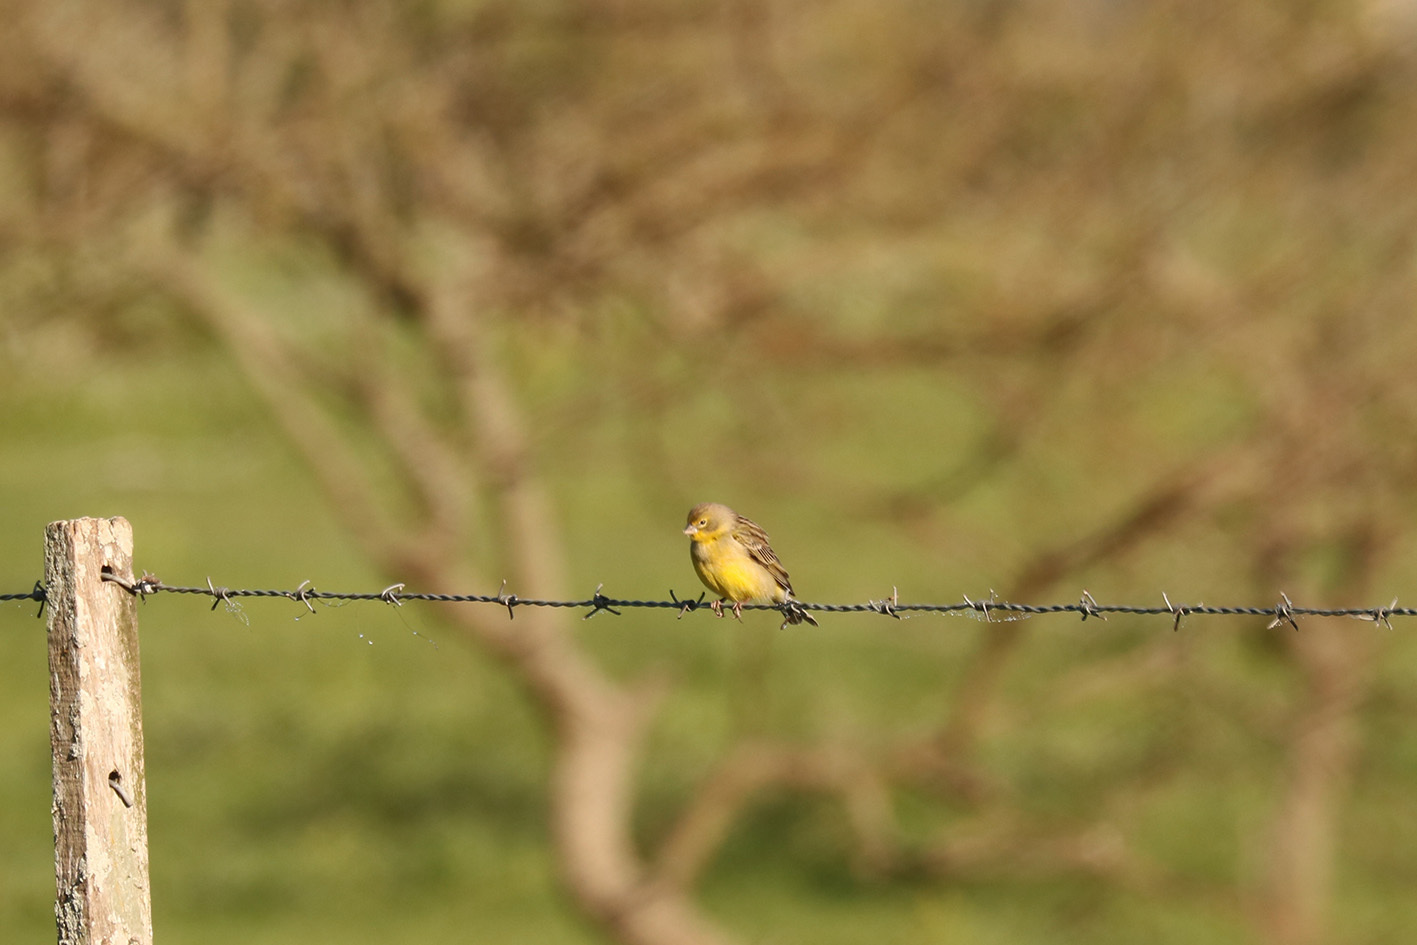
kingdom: Animalia
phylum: Chordata
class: Aves
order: Passeriformes
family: Thraupidae
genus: Sicalis
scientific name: Sicalis luteola
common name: Grassland yellow-finch
